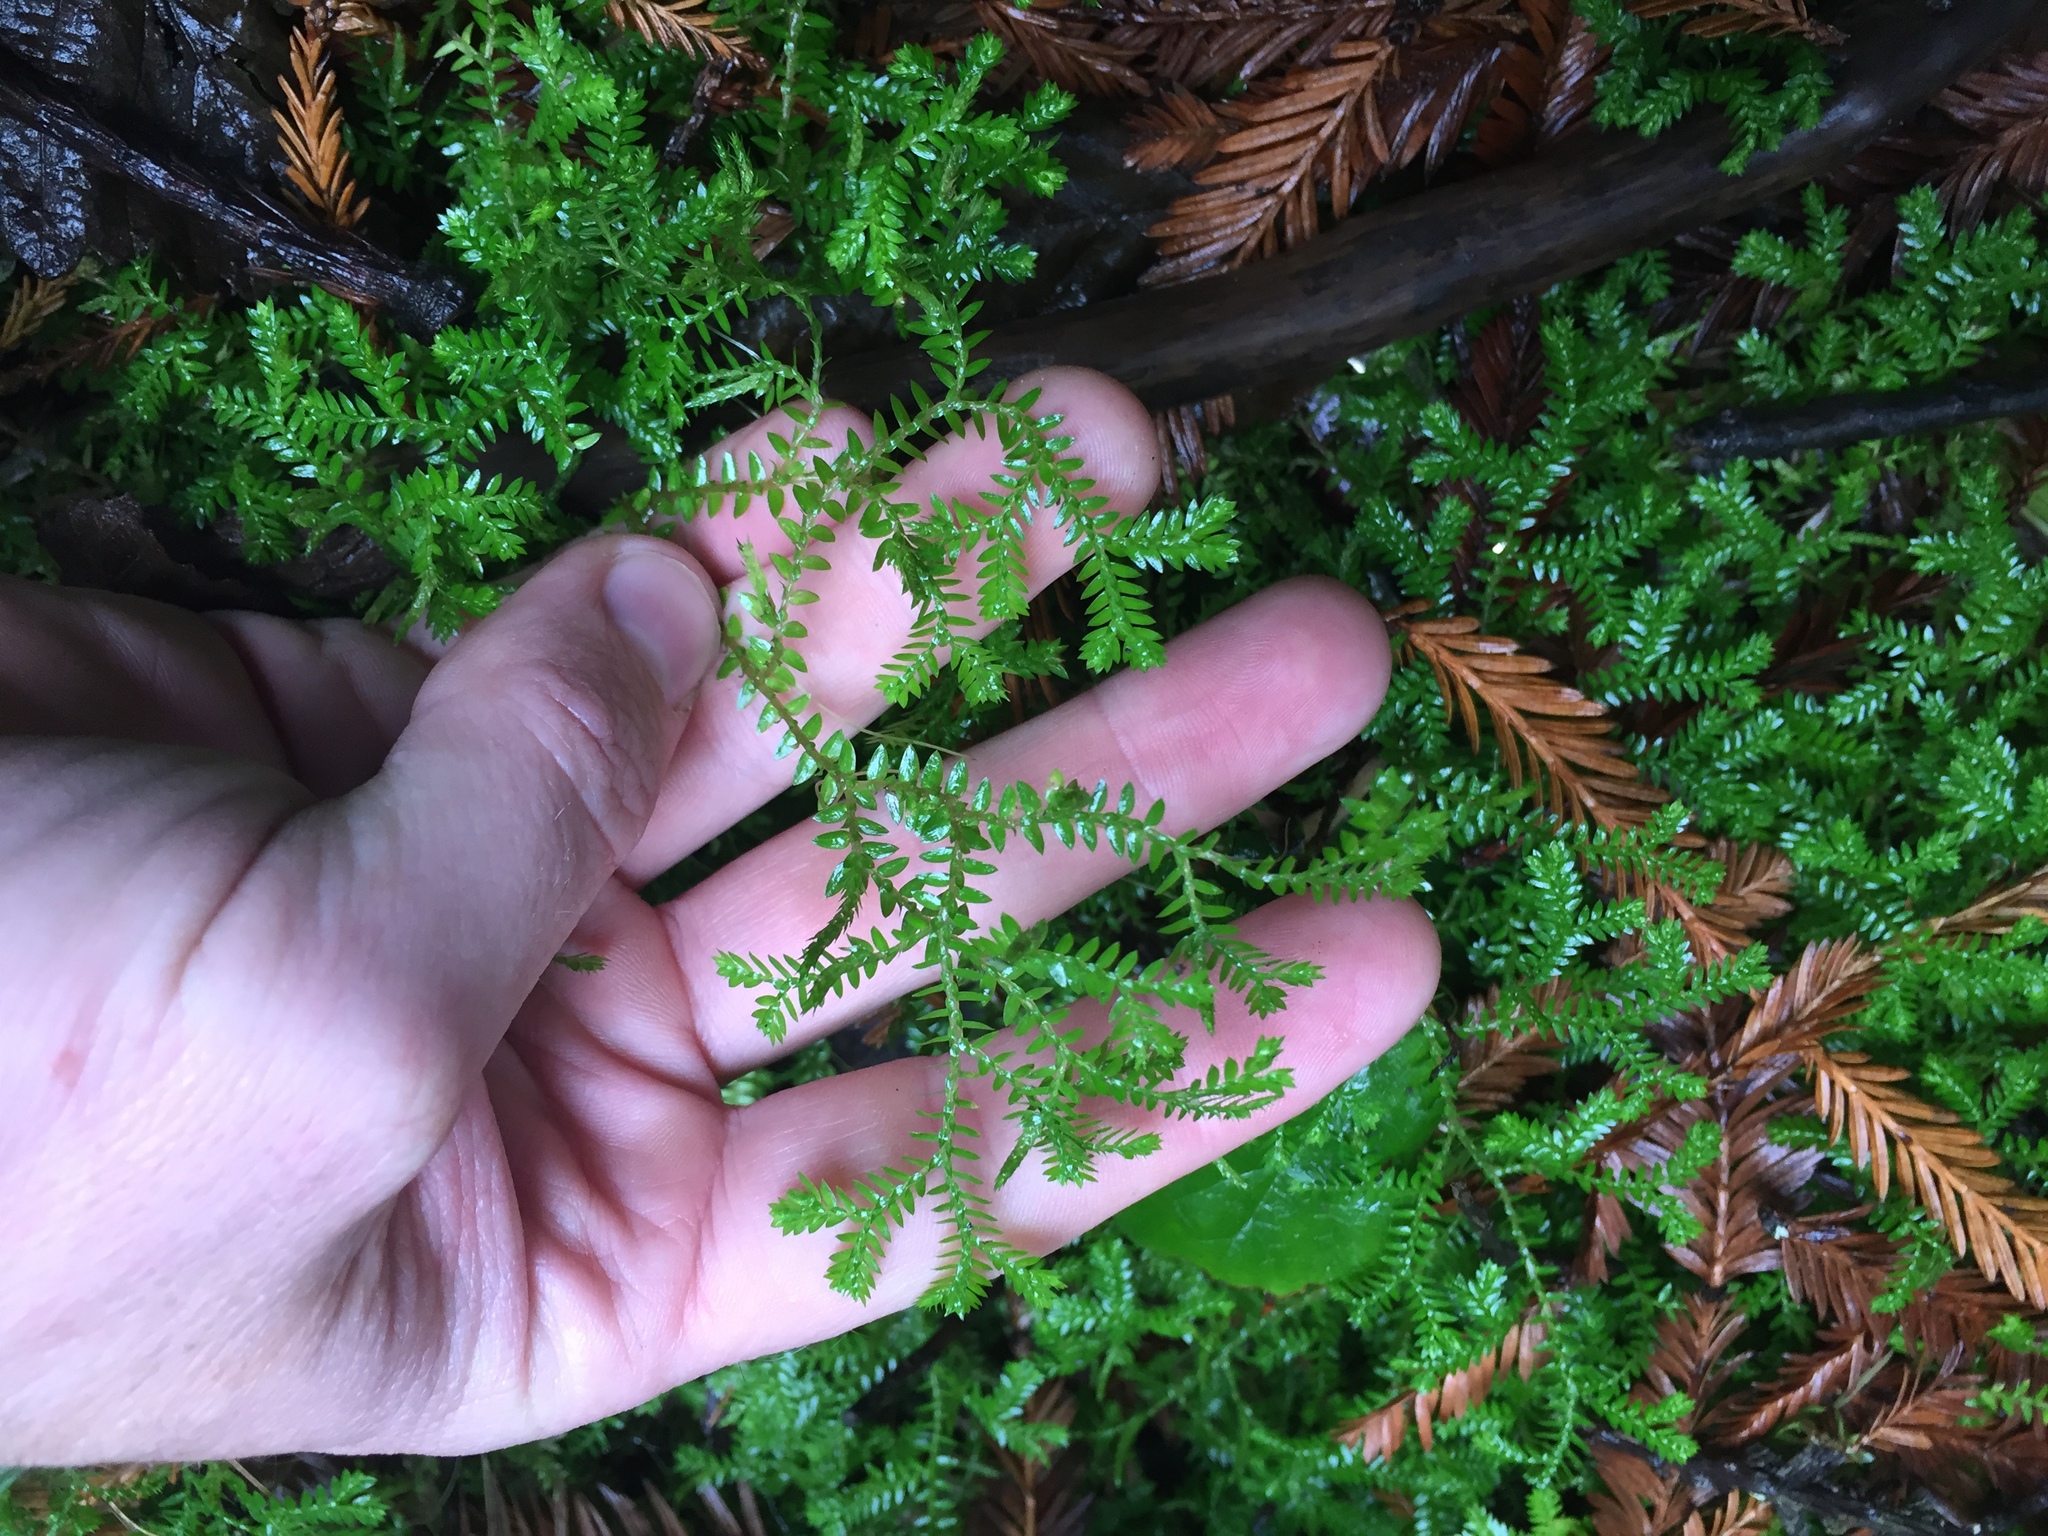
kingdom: Plantae
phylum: Tracheophyta
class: Lycopodiopsida
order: Selaginellales
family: Selaginellaceae
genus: Selaginella
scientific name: Selaginella kraussiana
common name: Krauss' spikemoss
